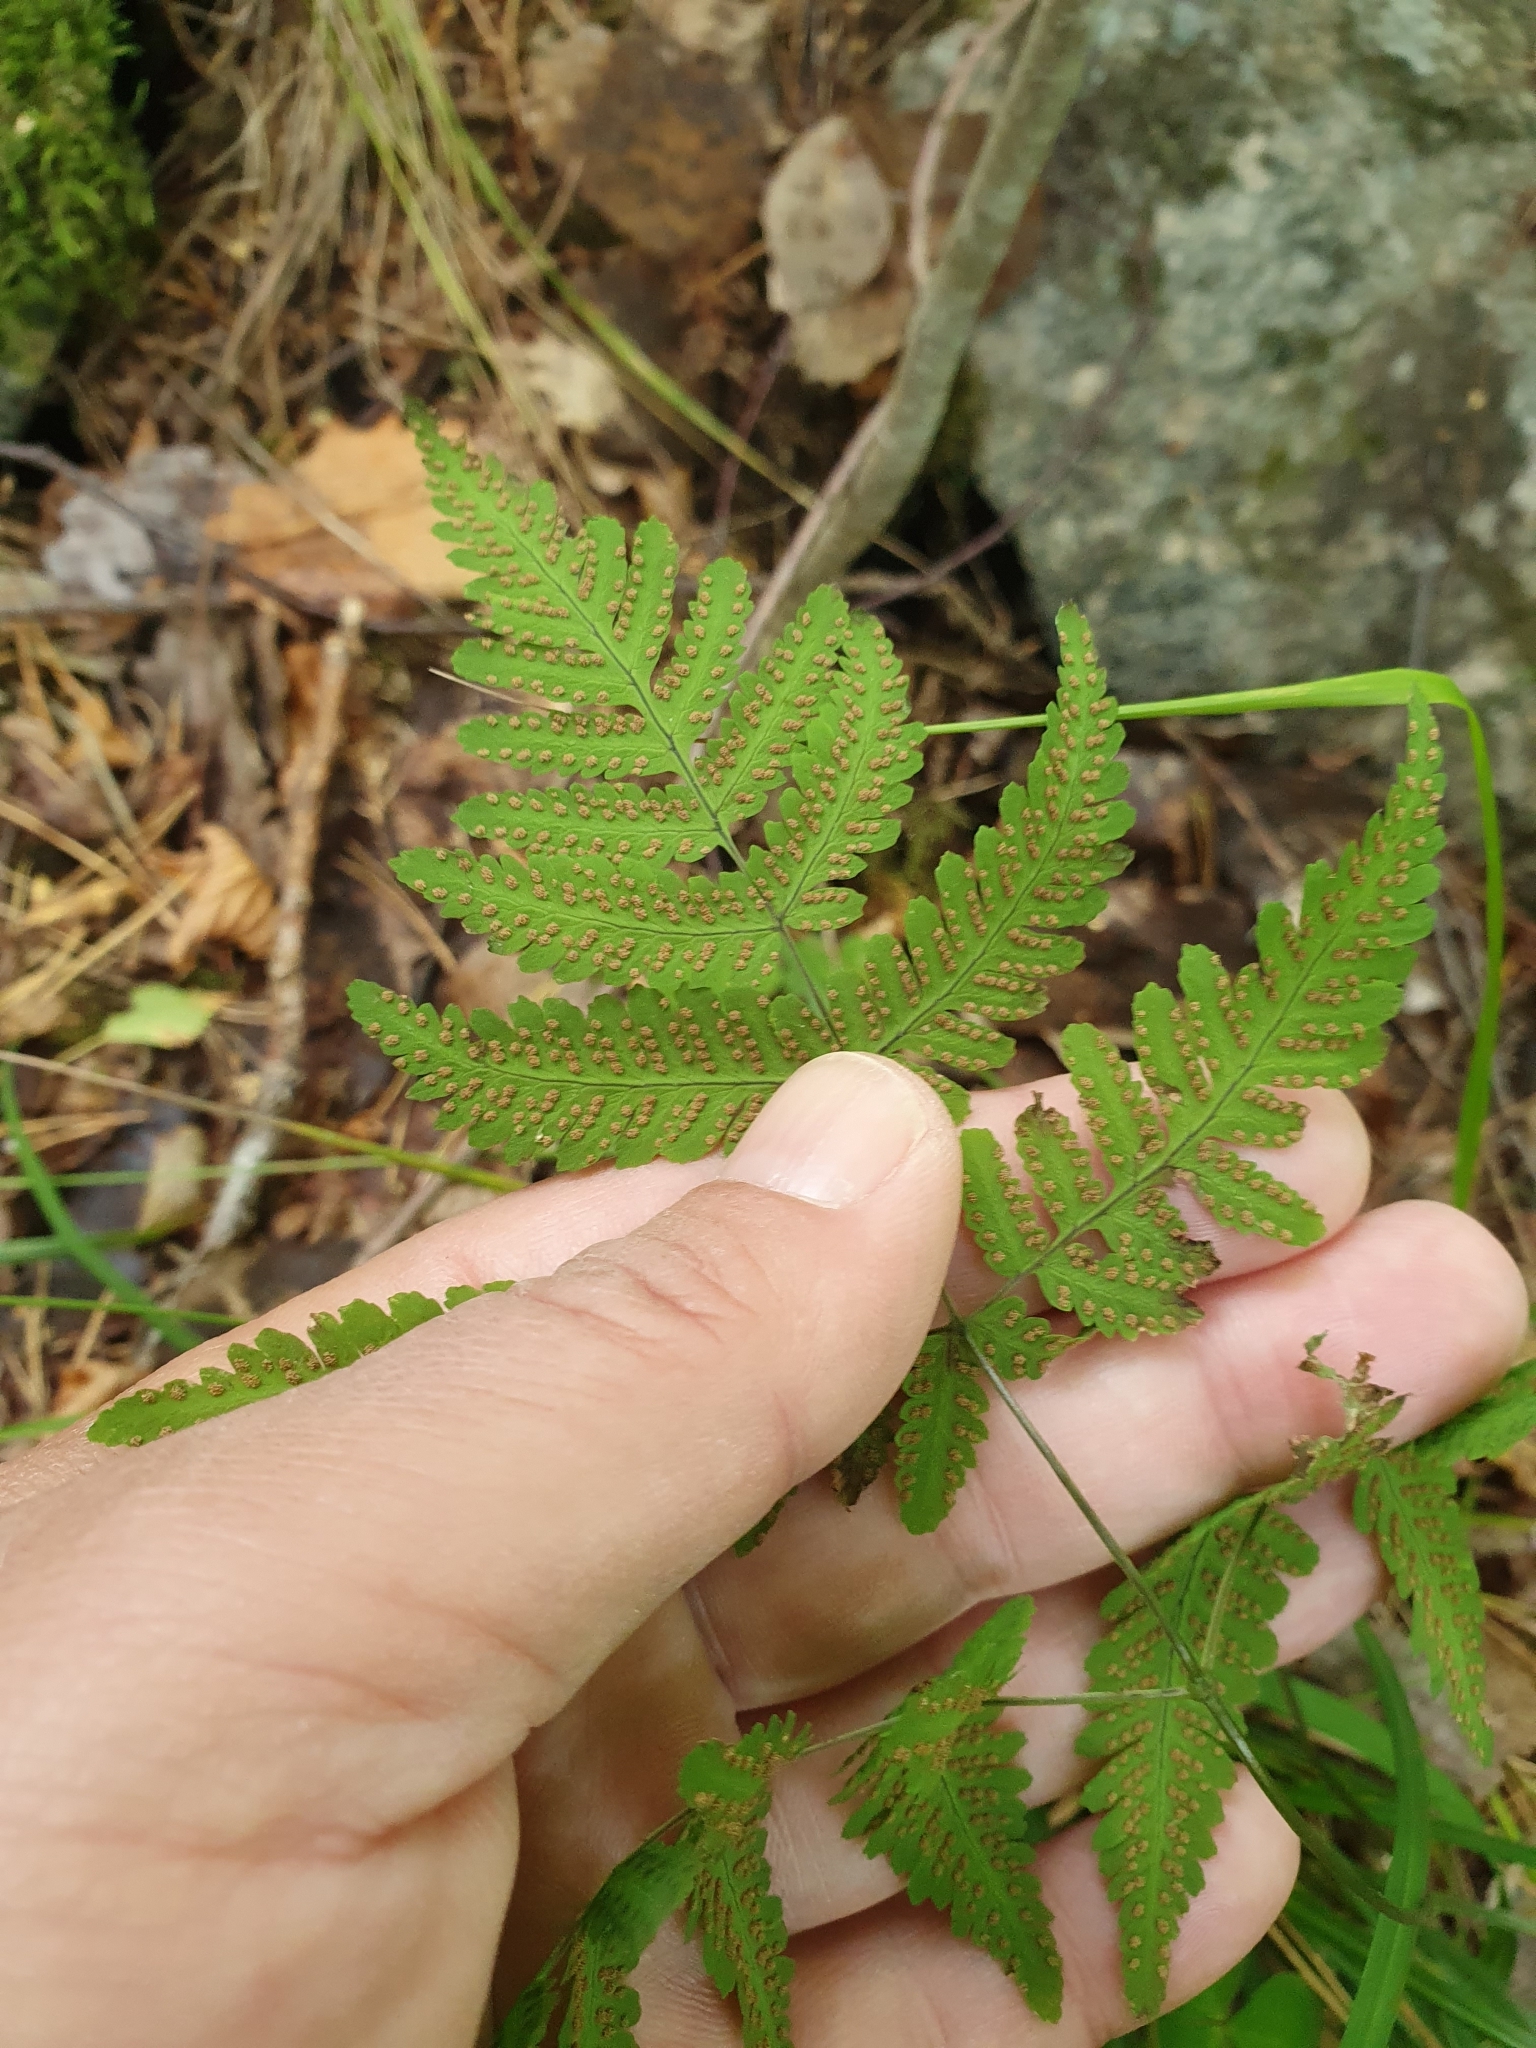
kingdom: Plantae
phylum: Tracheophyta
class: Polypodiopsida
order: Polypodiales
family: Cystopteridaceae
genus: Gymnocarpium
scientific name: Gymnocarpium dryopteris
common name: Oak fern
